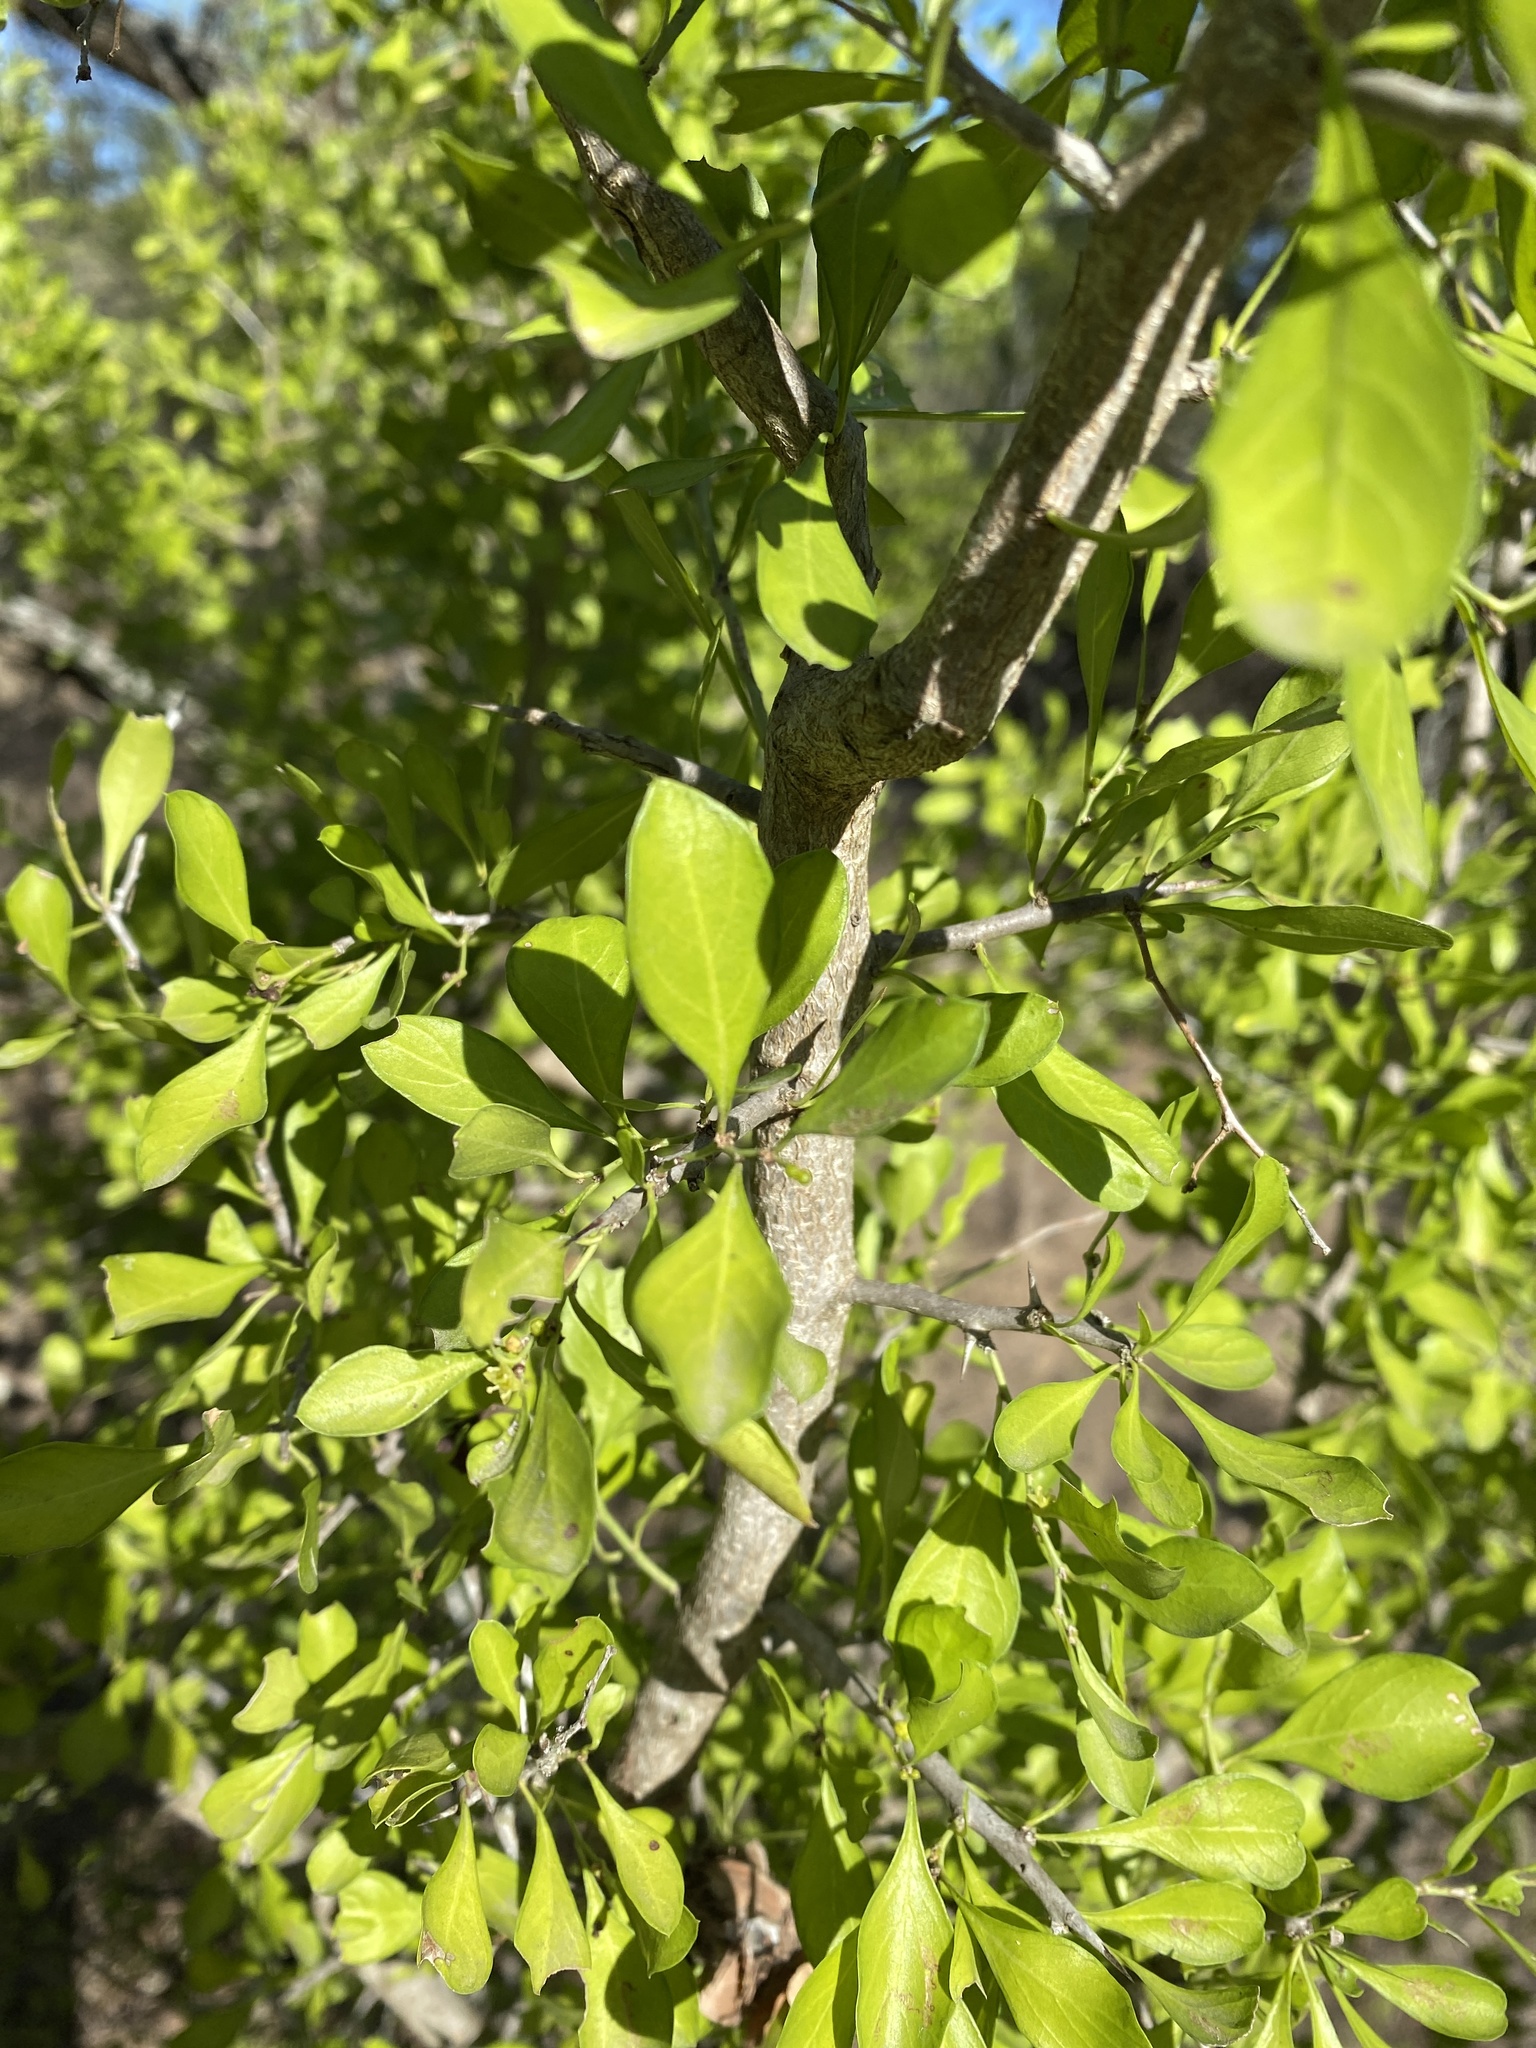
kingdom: Plantae
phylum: Tracheophyta
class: Magnoliopsida
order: Rosales
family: Rhamnaceae
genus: Condalia
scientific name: Condalia hookeri
